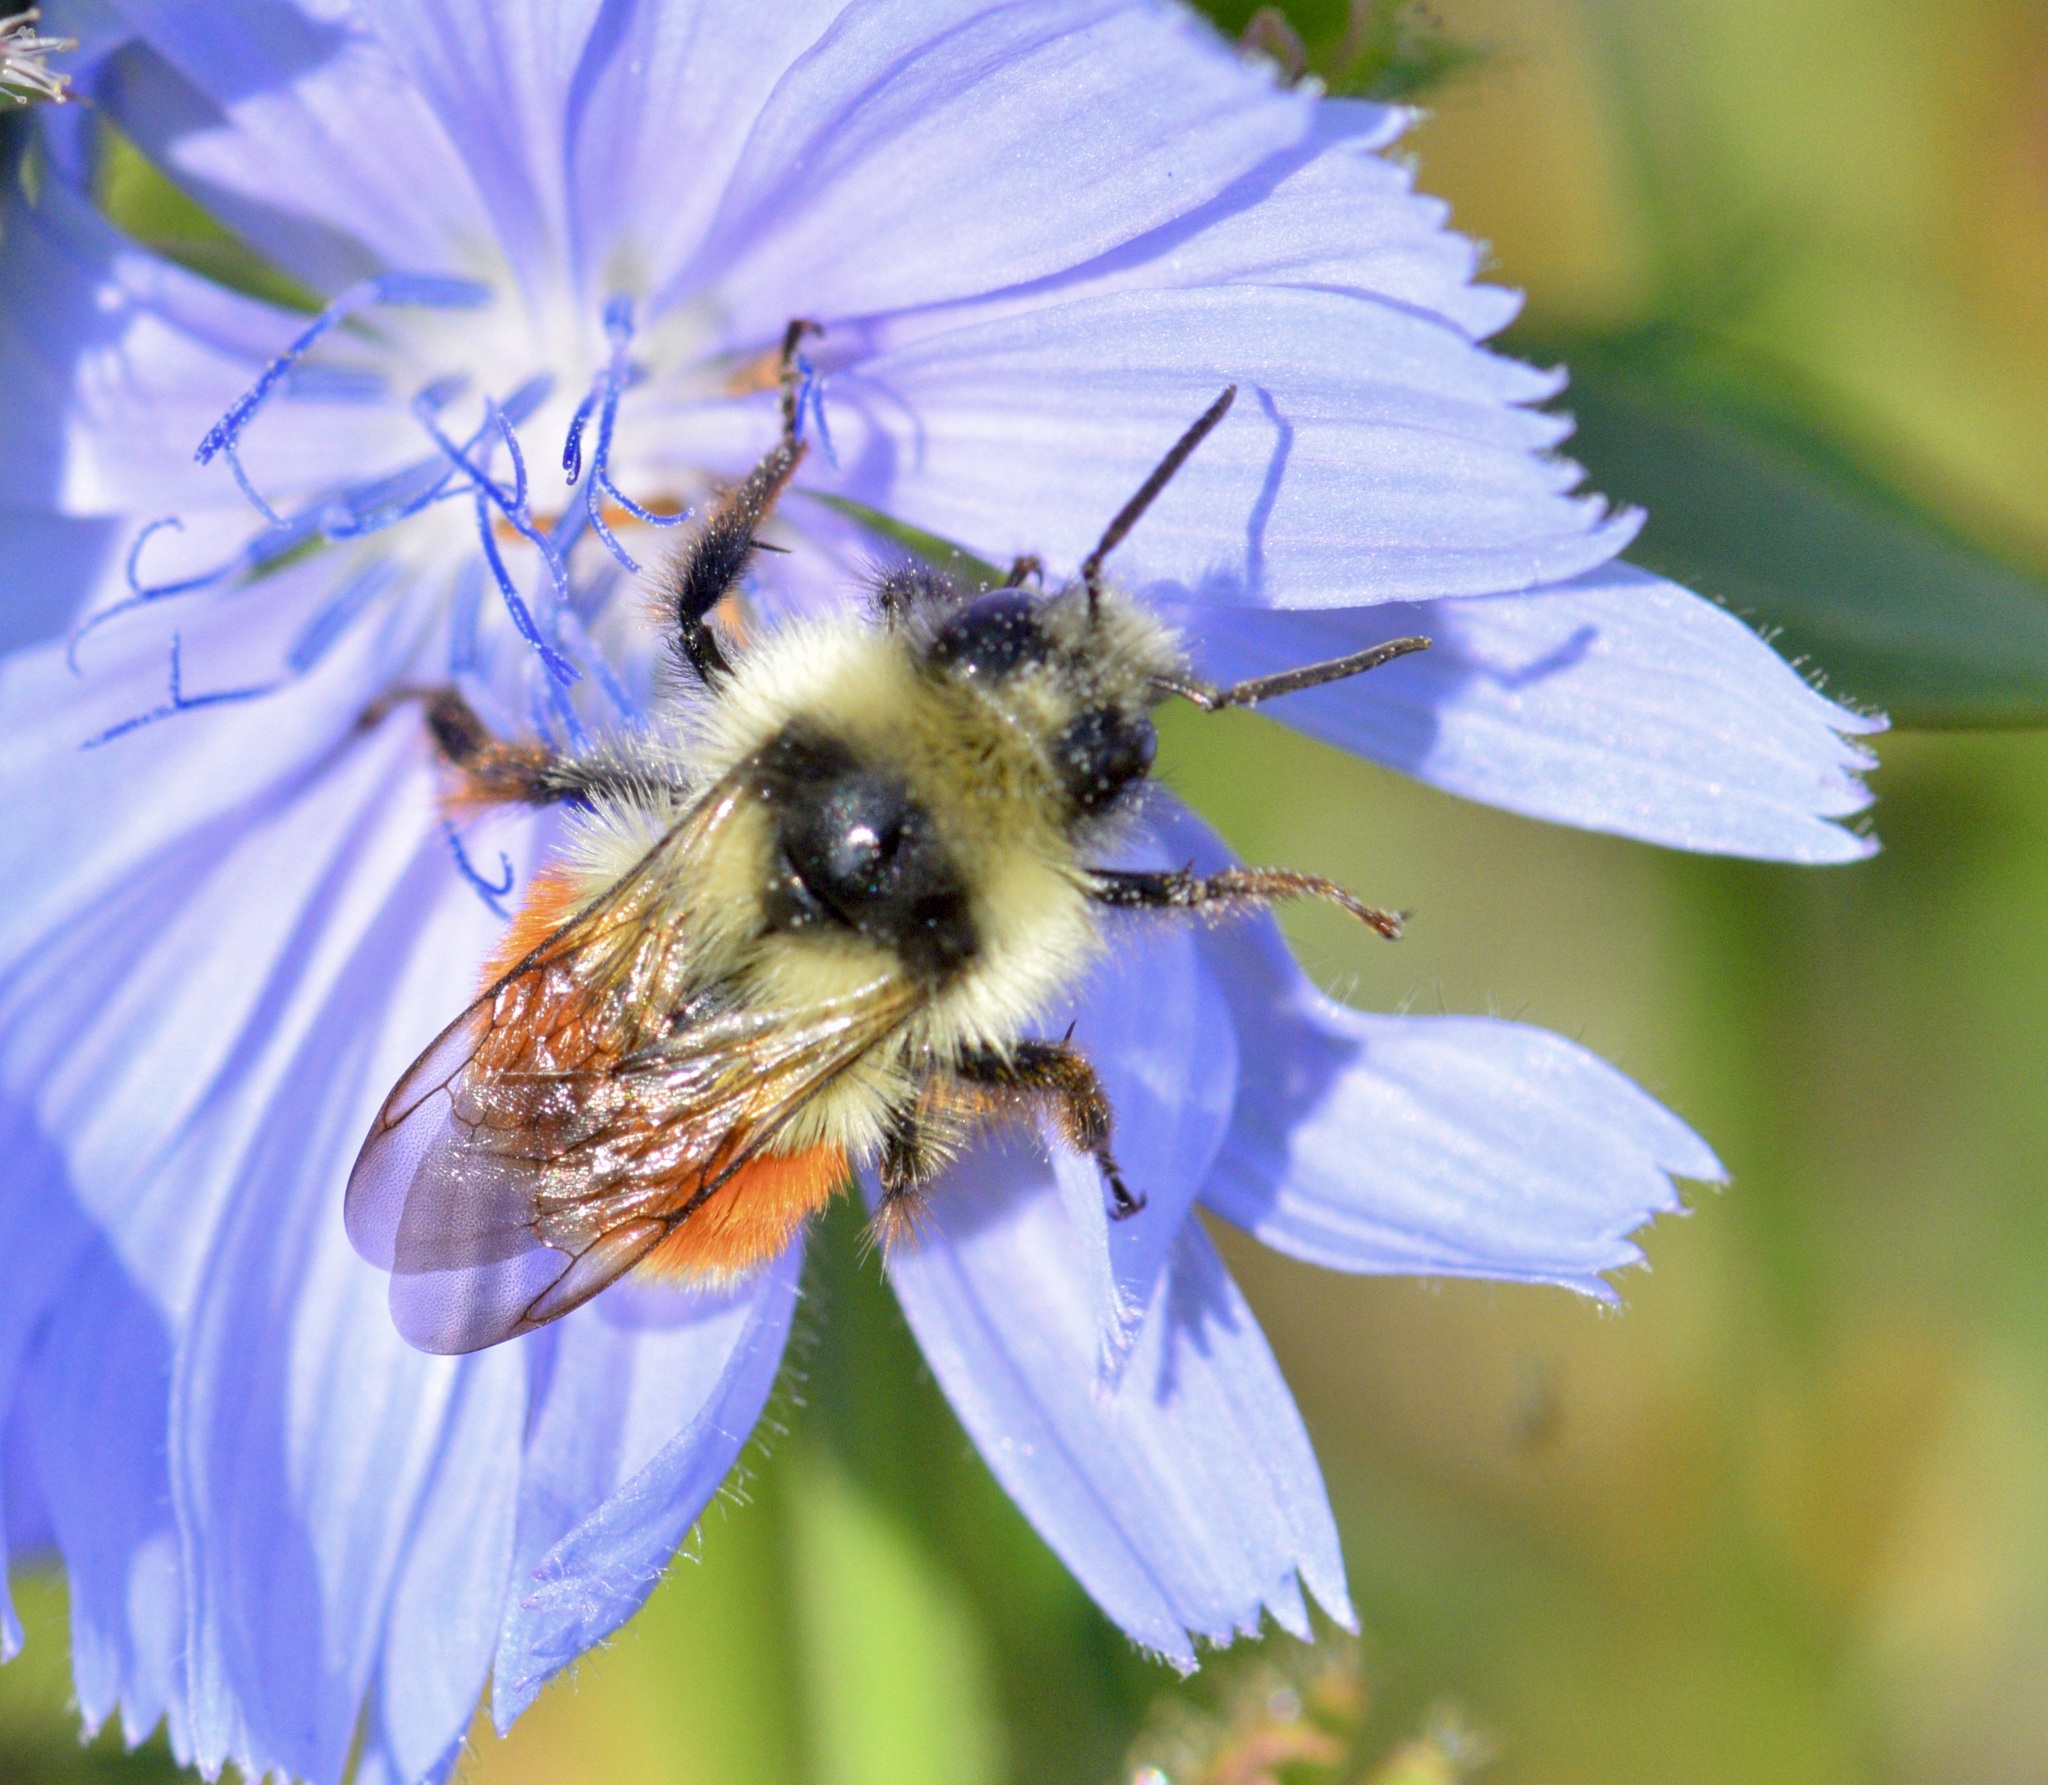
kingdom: Animalia
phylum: Arthropoda
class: Insecta
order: Hymenoptera
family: Apidae
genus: Bombus
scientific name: Bombus ternarius
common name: Tri-colored bumble bee
